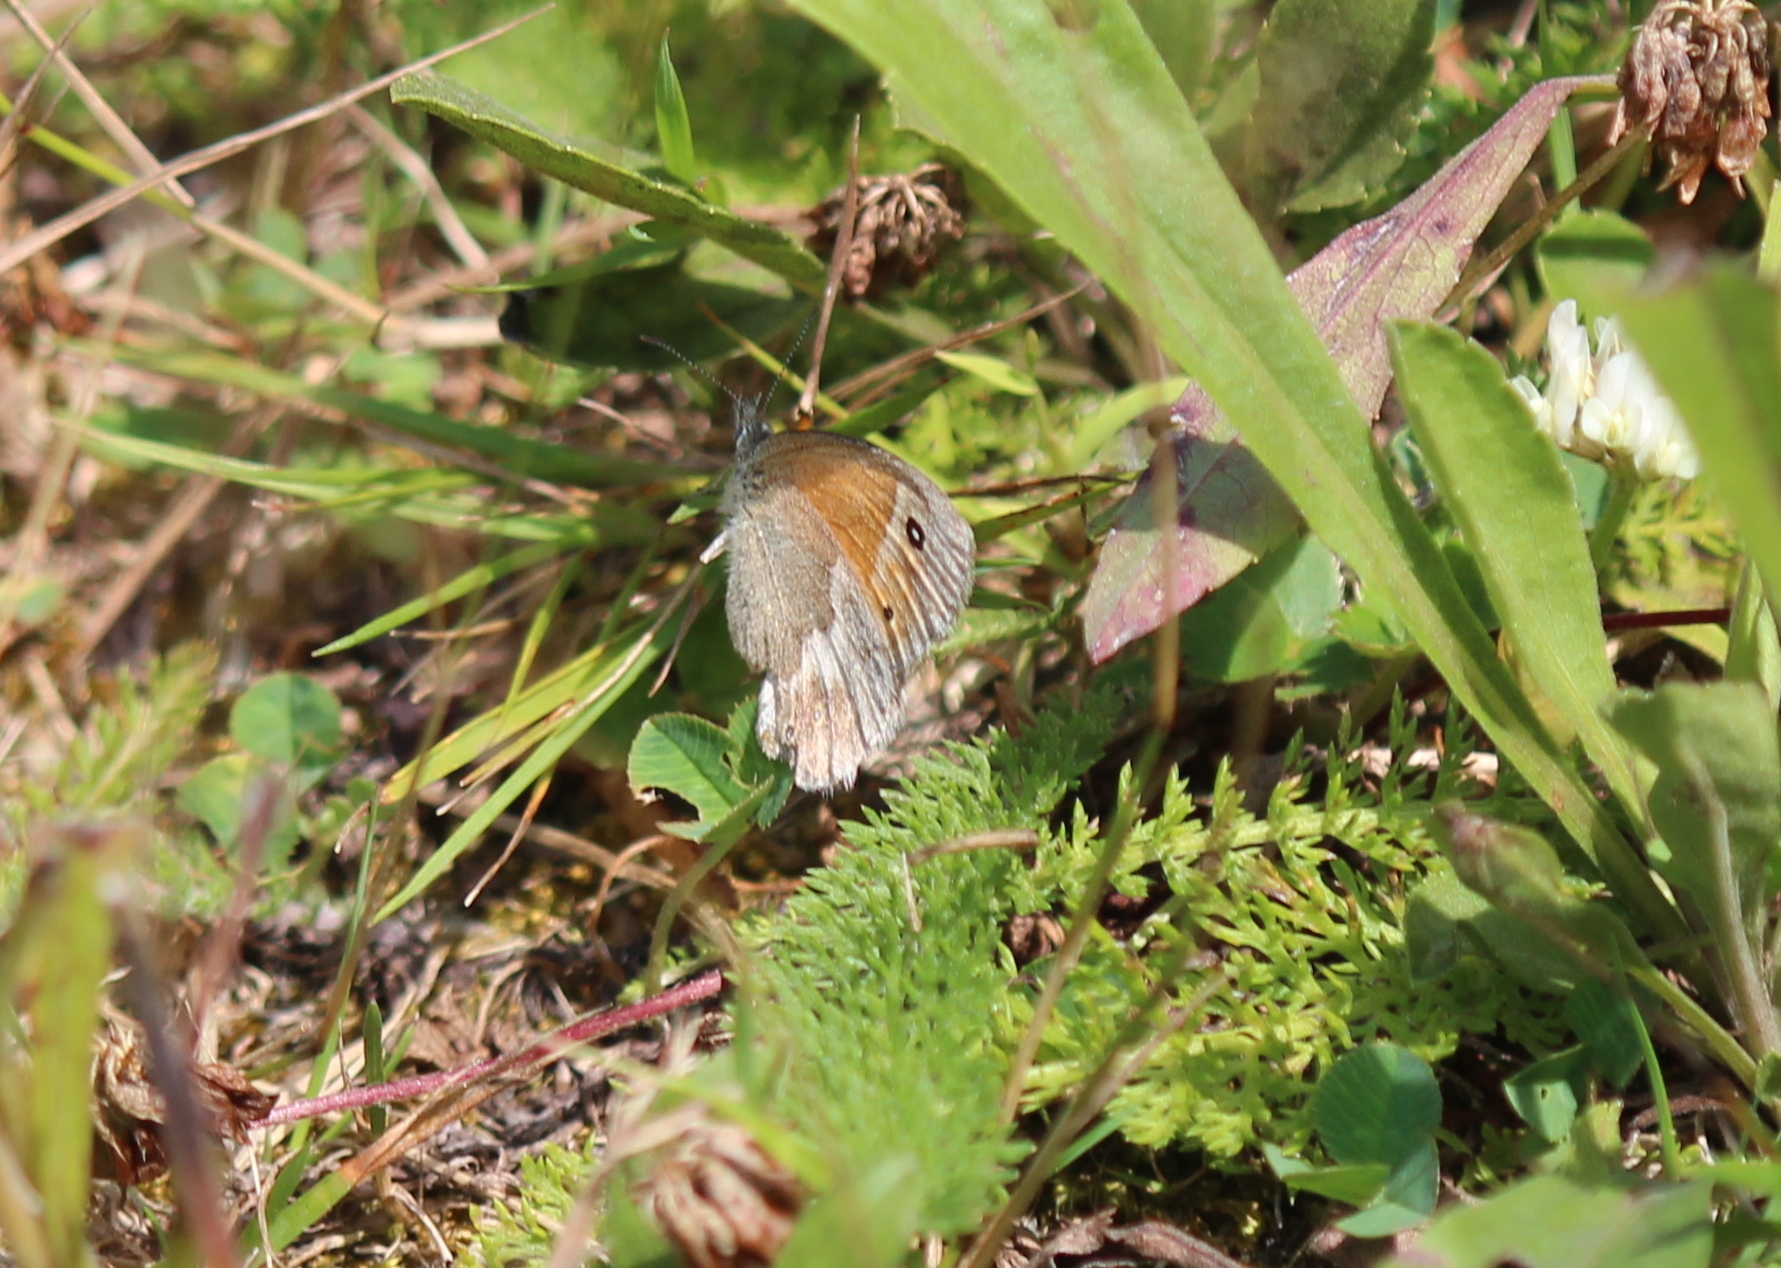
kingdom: Animalia
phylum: Arthropoda
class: Insecta
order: Lepidoptera
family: Nymphalidae
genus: Coenonympha
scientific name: Coenonympha california
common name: Common ringlet
